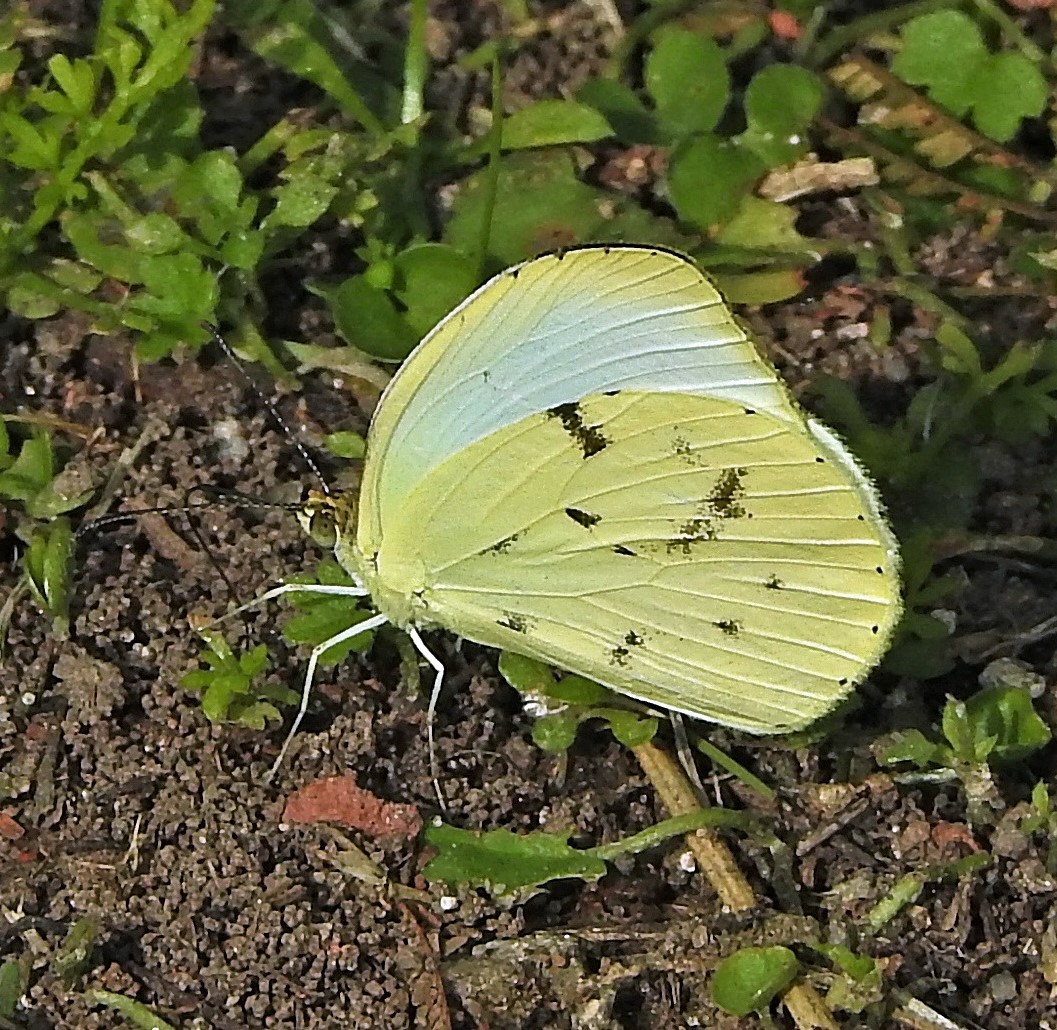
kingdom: Animalia
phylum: Arthropoda
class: Insecta
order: Lepidoptera
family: Pieridae
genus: Abaeis
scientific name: Abaeis albula
